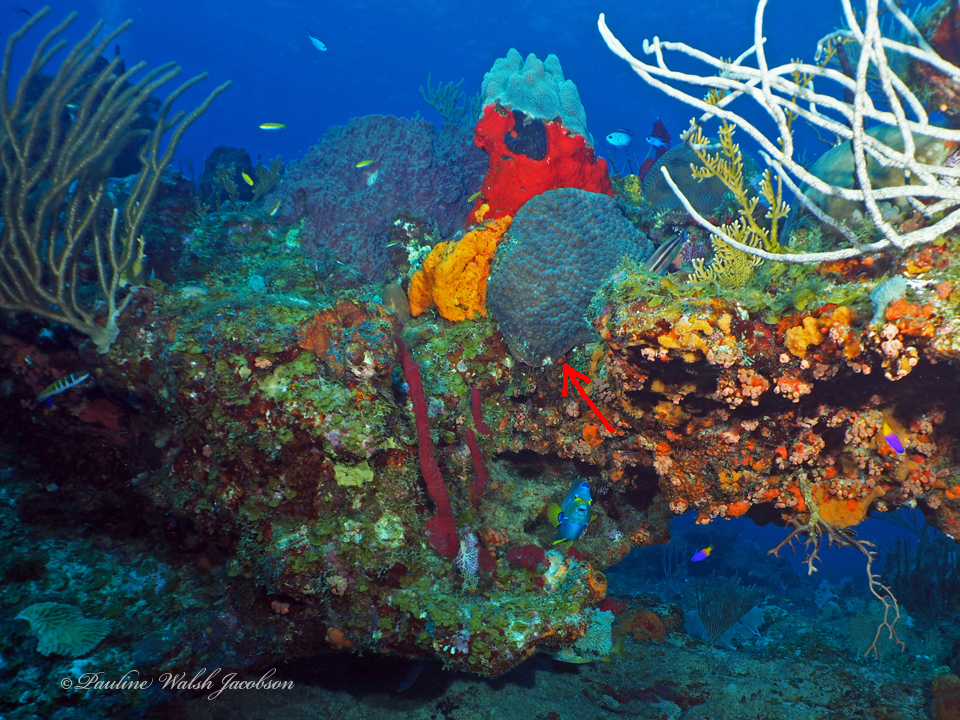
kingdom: Animalia
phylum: Cnidaria
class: Anthozoa
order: Scleractinia
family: Montastraeidae
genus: Montastraea
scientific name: Montastraea cavernosa
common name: Great star coral
